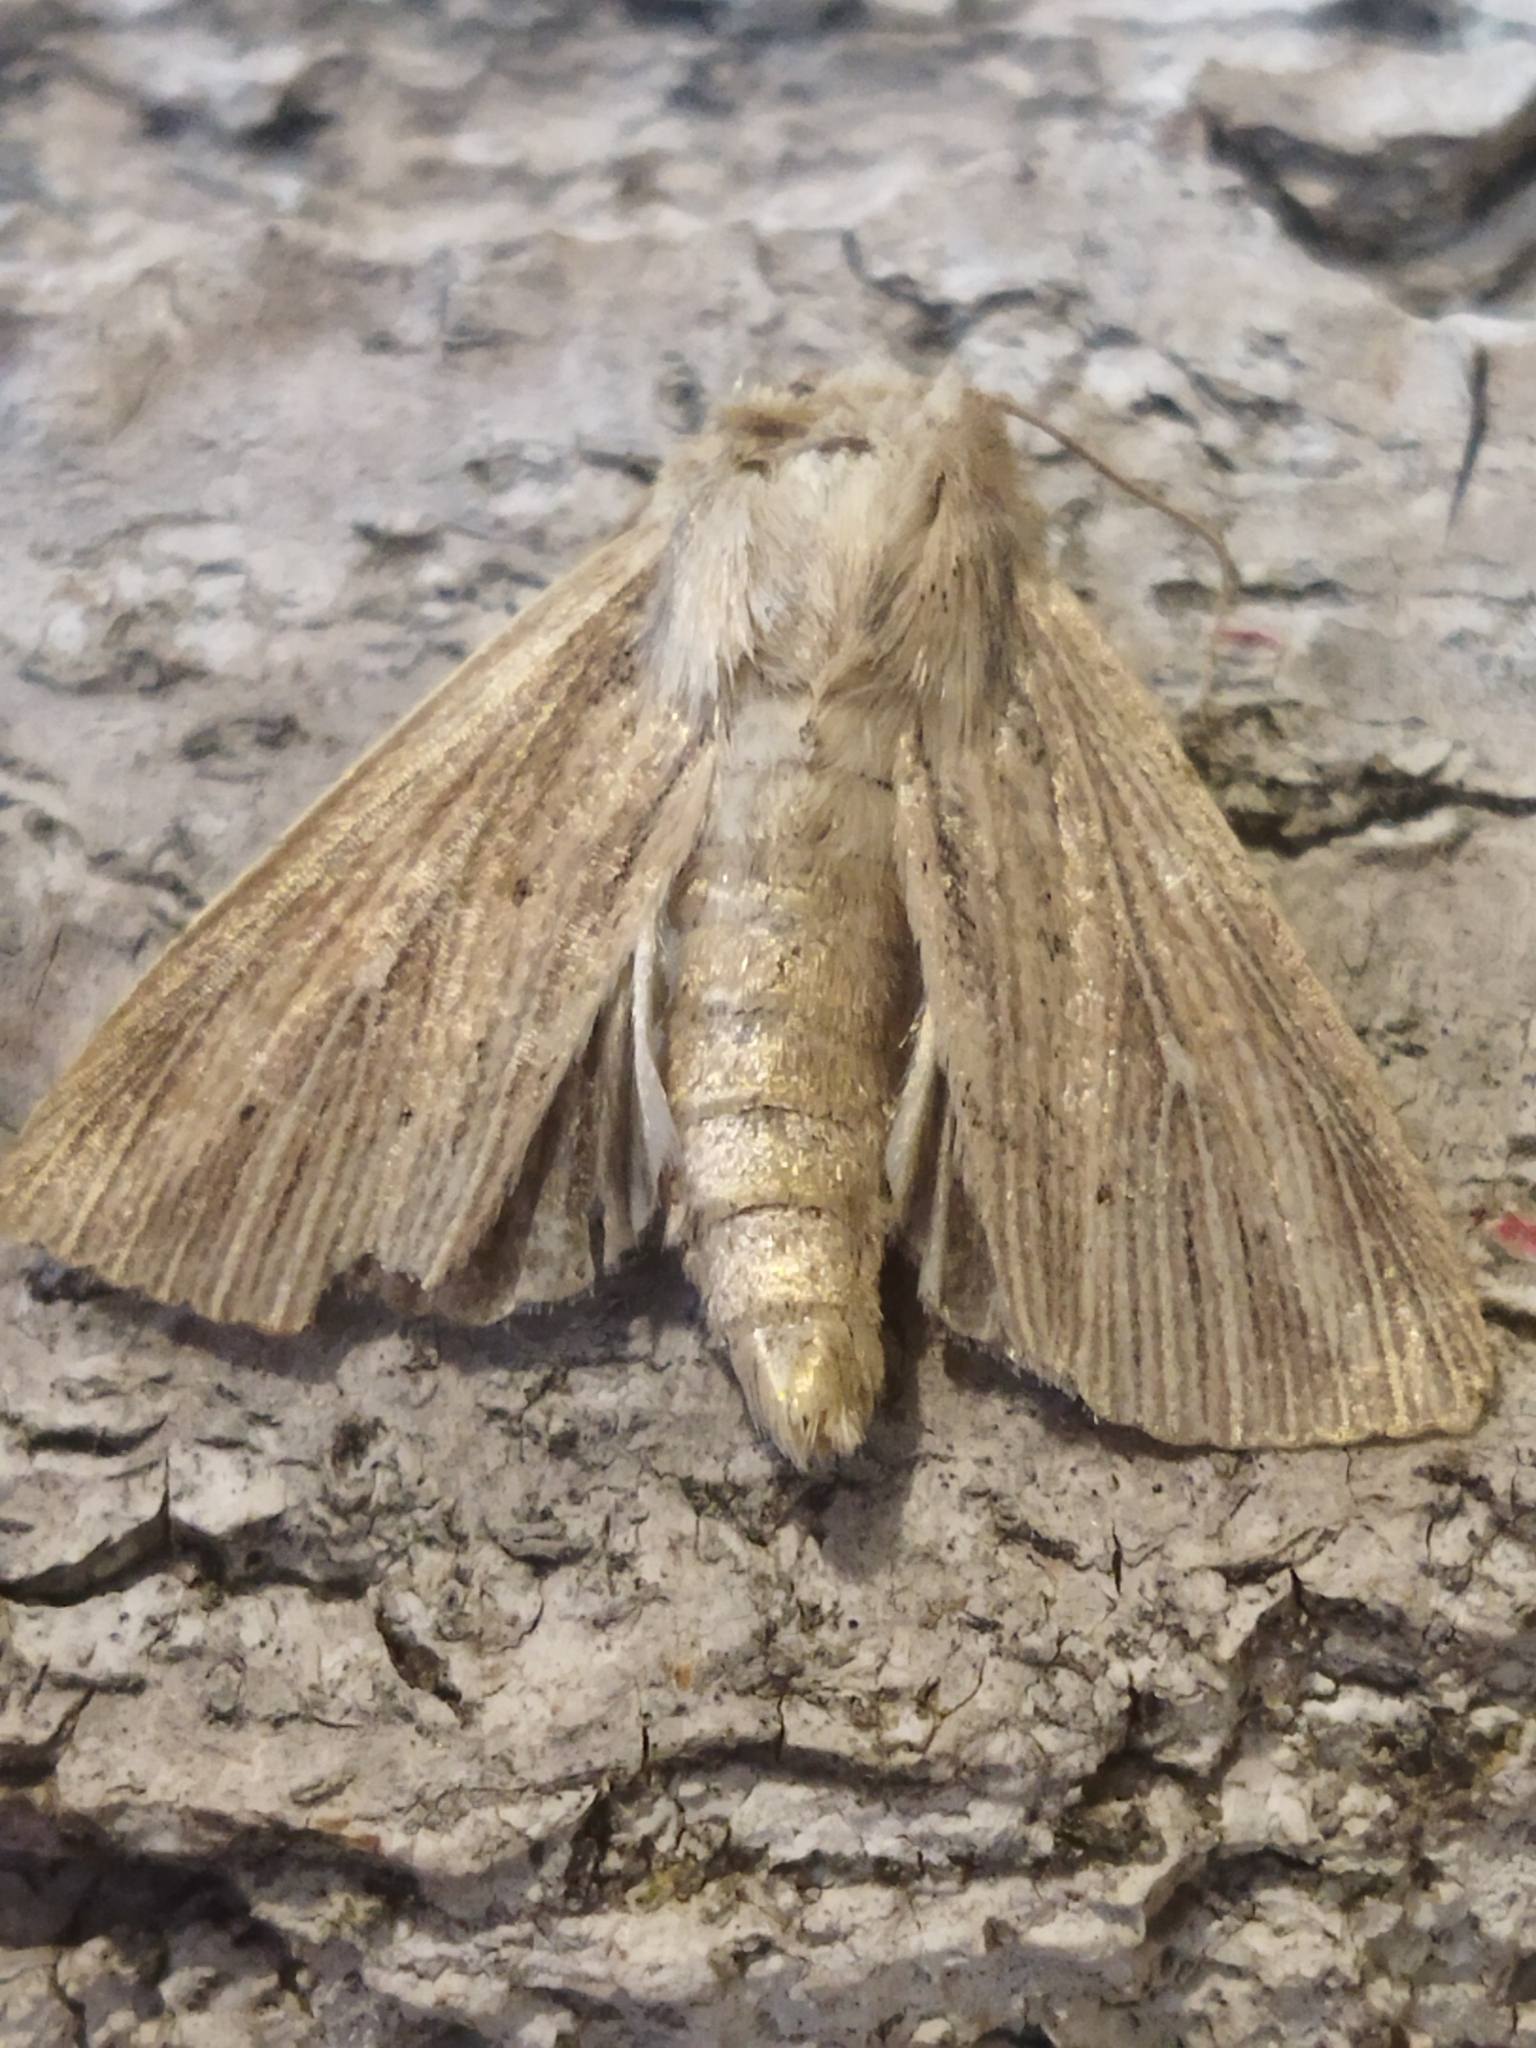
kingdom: Animalia
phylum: Arthropoda
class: Insecta
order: Lepidoptera
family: Noctuidae
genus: Mythimna
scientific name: Mythimna congrua
